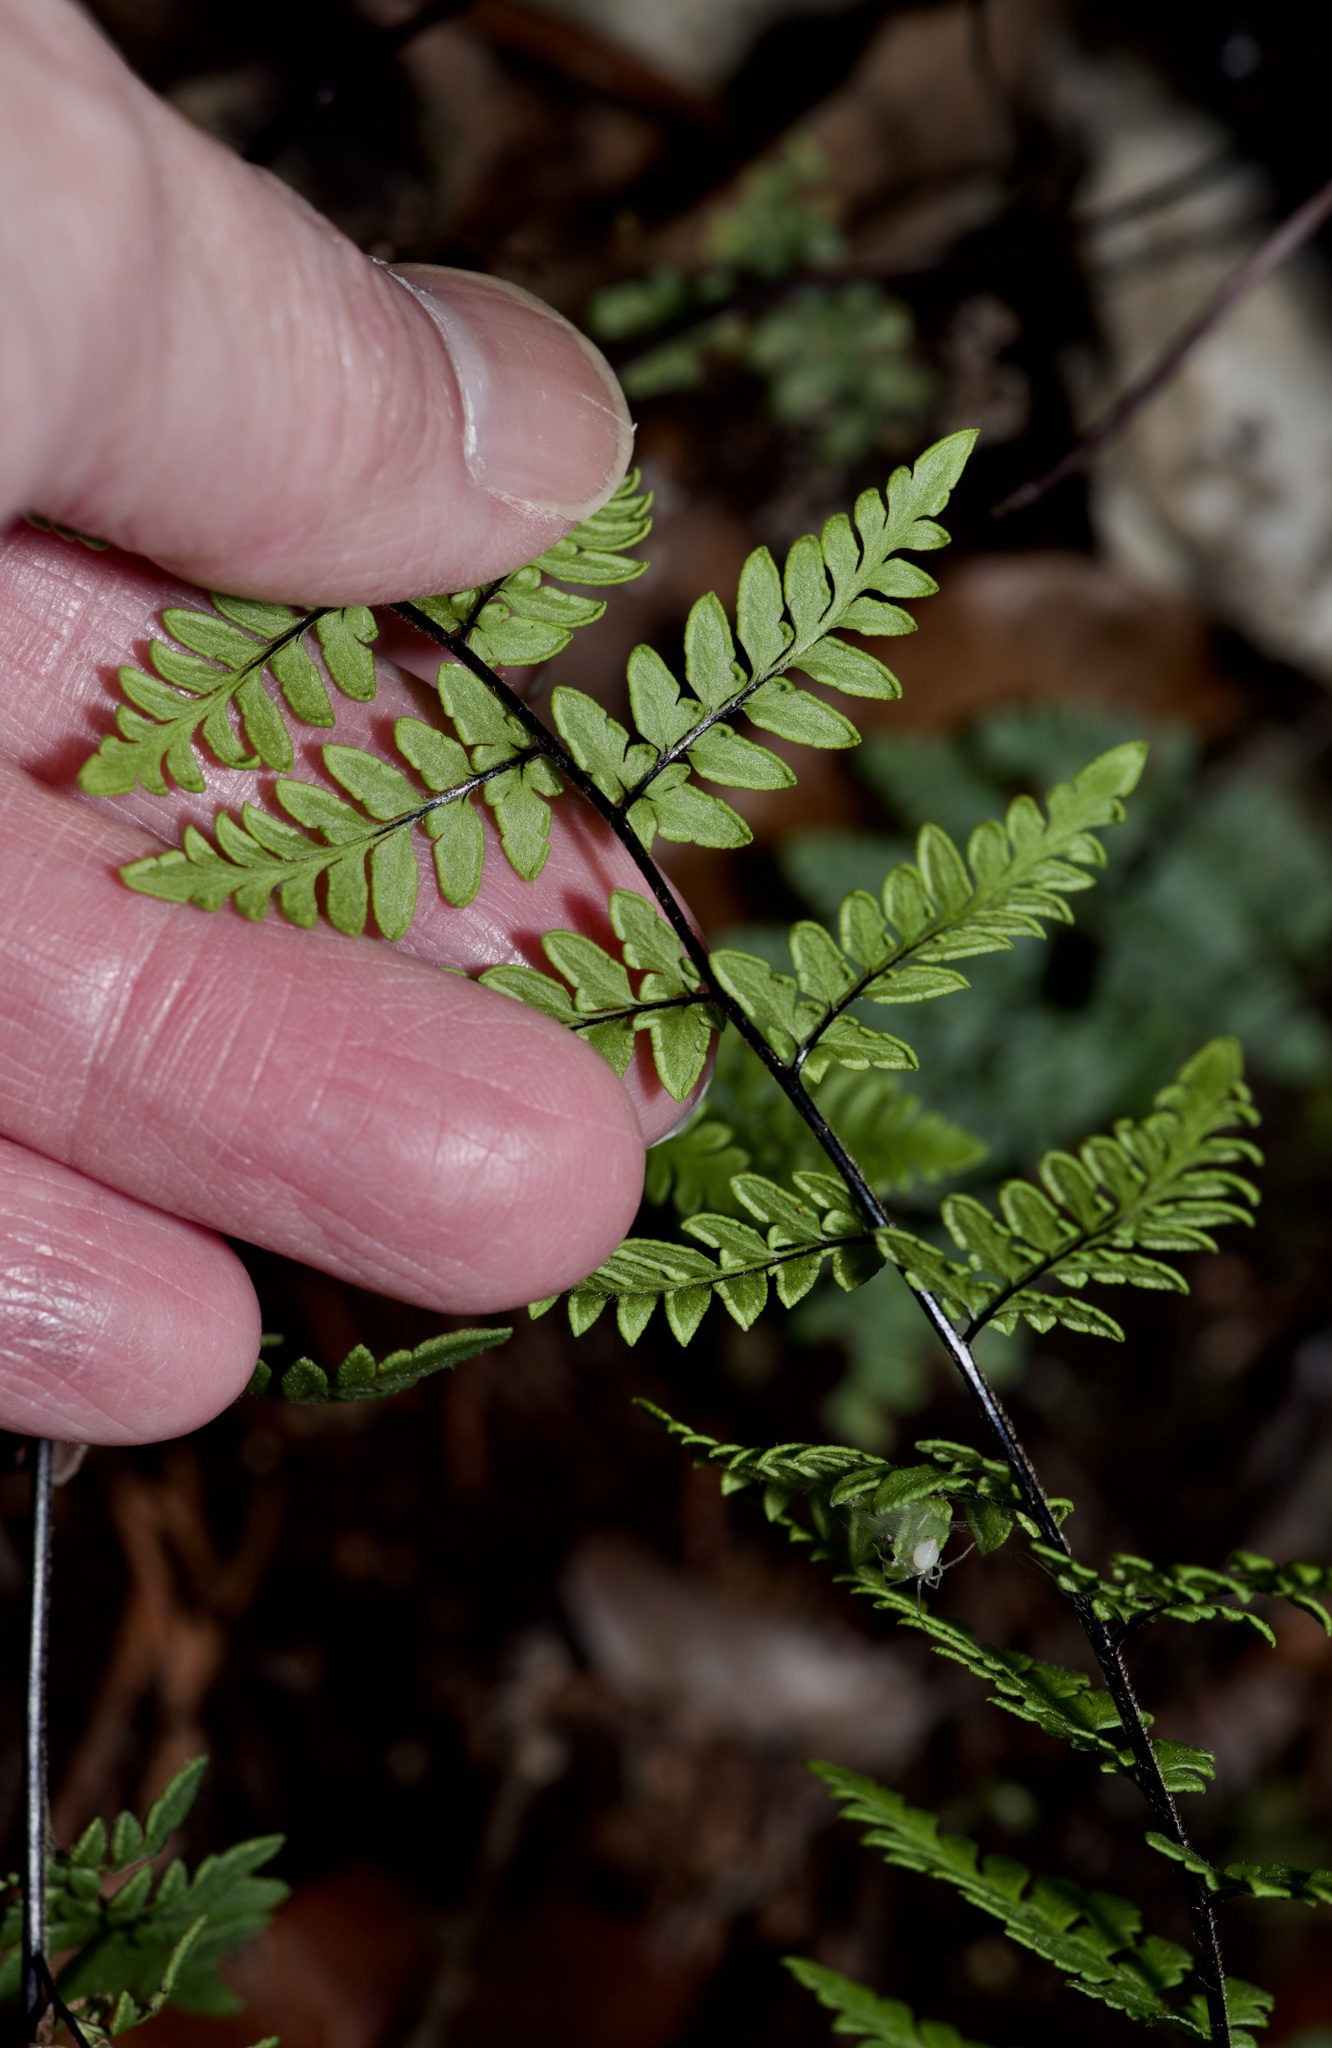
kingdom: Plantae
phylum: Tracheophyta
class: Polypodiopsida
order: Polypodiales
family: Pteridaceae
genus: Myriopteris
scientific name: Myriopteris alabamensis
